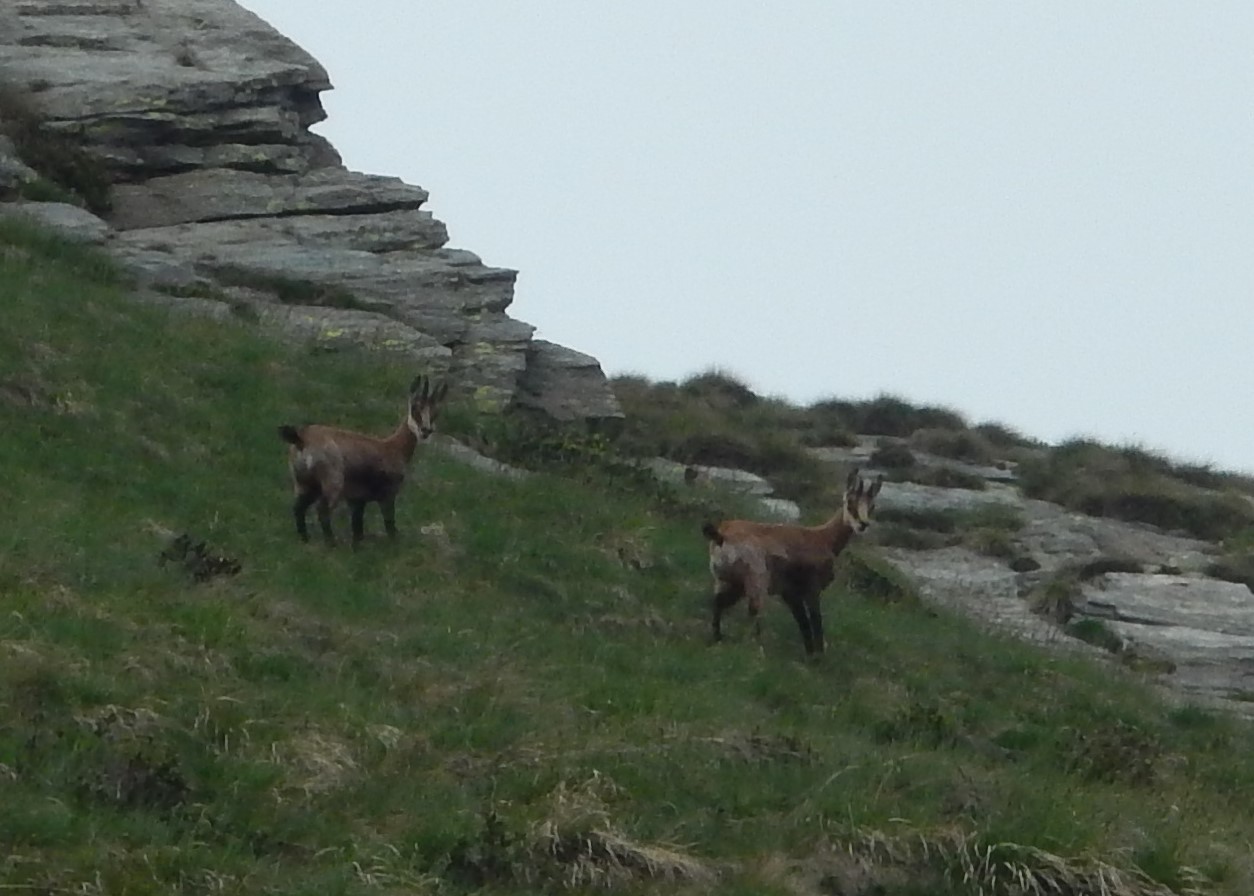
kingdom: Animalia
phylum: Chordata
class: Mammalia
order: Artiodactyla
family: Bovidae
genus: Rupicapra
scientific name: Rupicapra rupicapra
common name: Chamois
